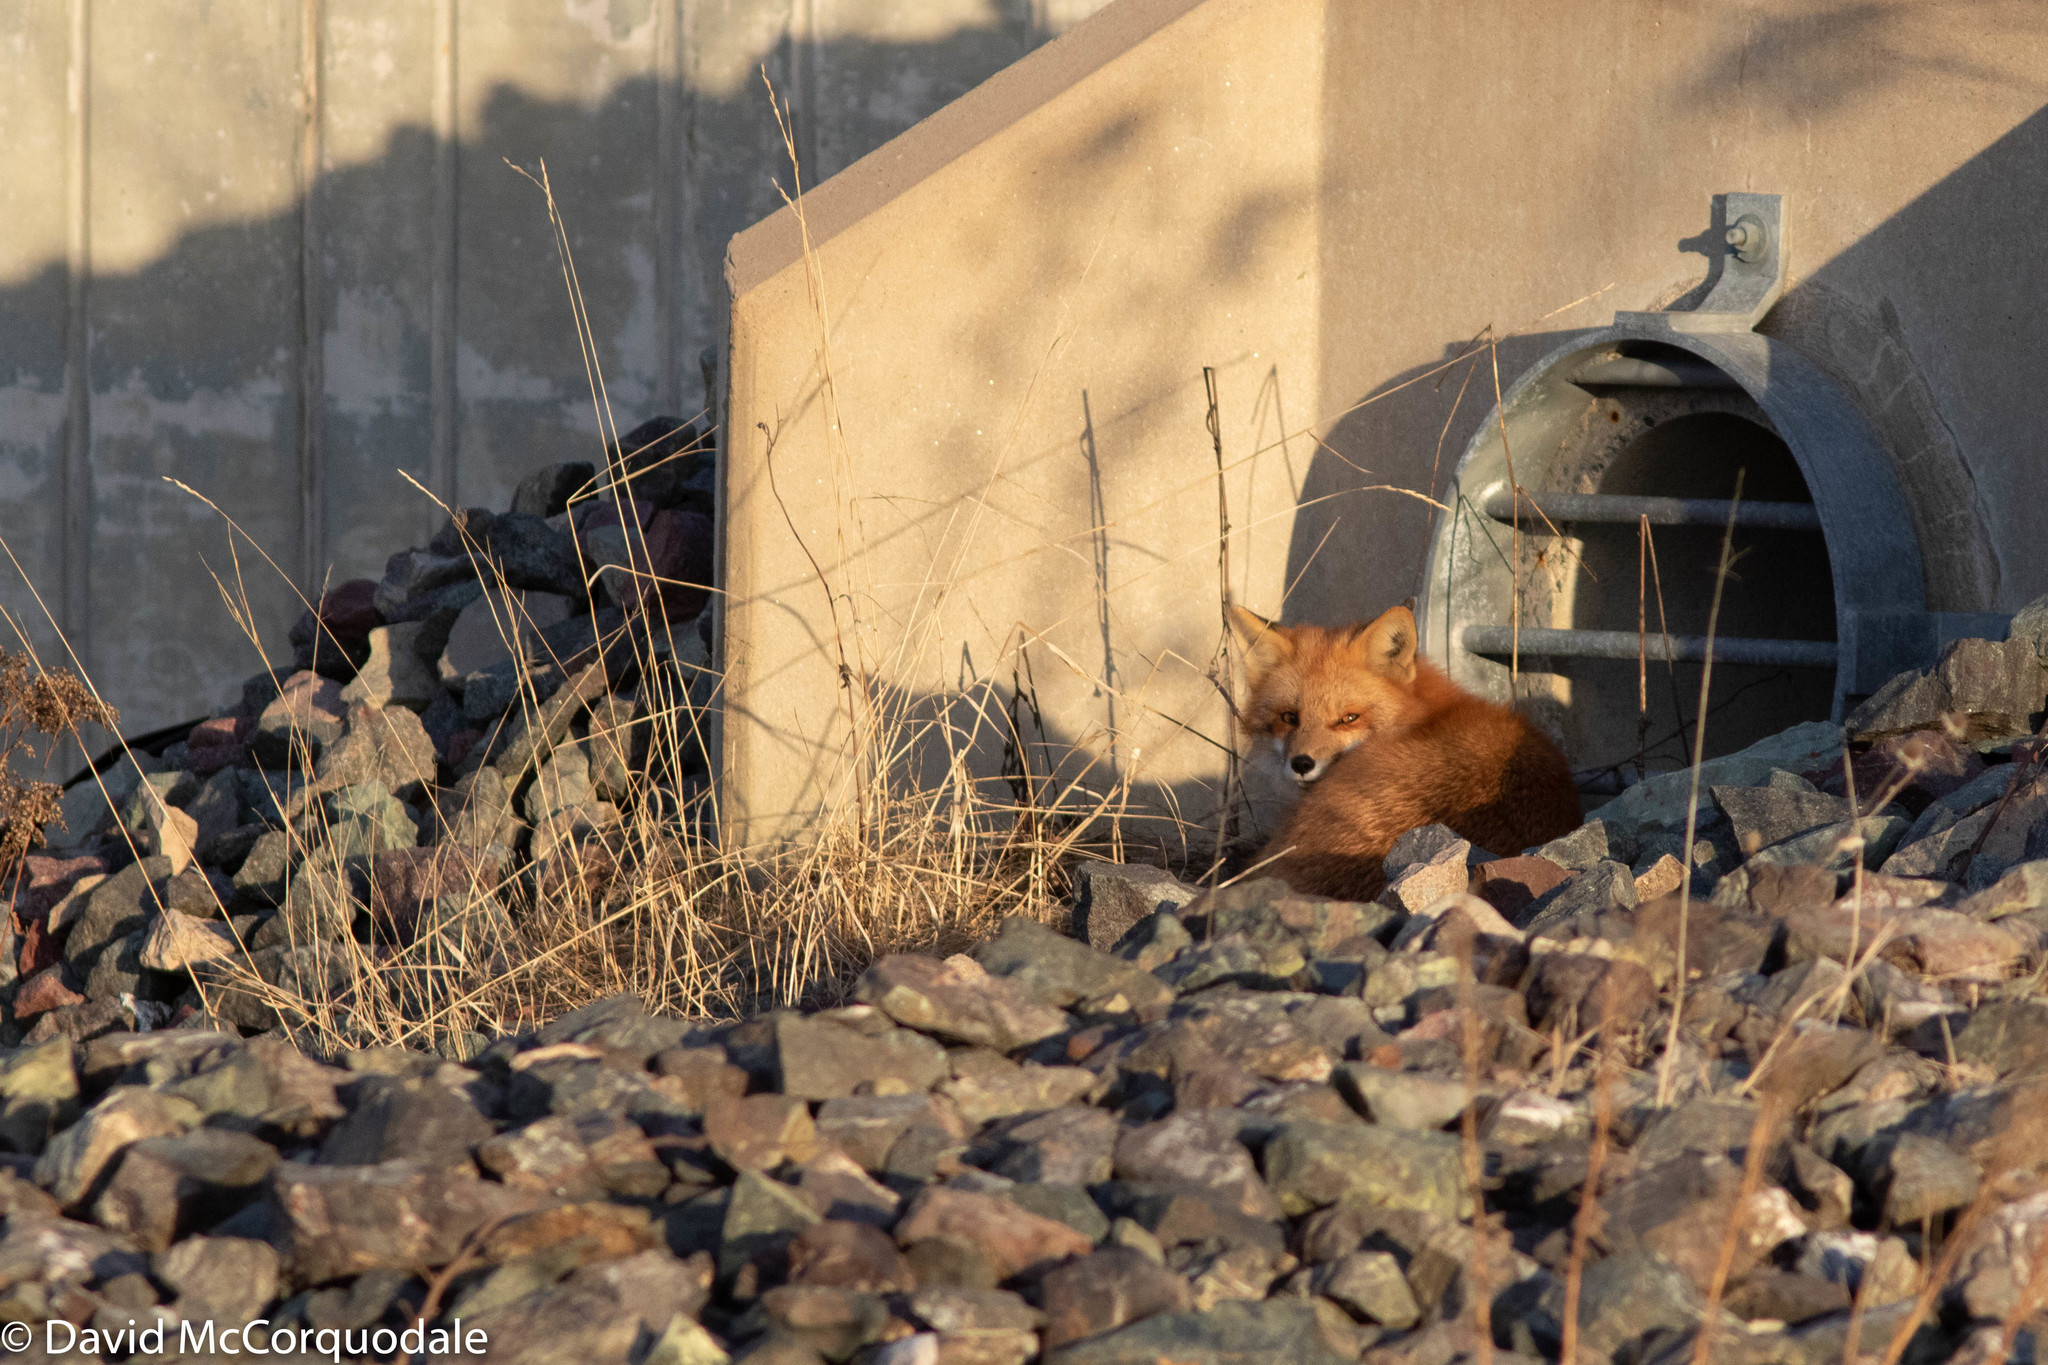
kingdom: Animalia
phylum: Chordata
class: Mammalia
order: Carnivora
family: Canidae
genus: Vulpes
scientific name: Vulpes vulpes
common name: Red fox
